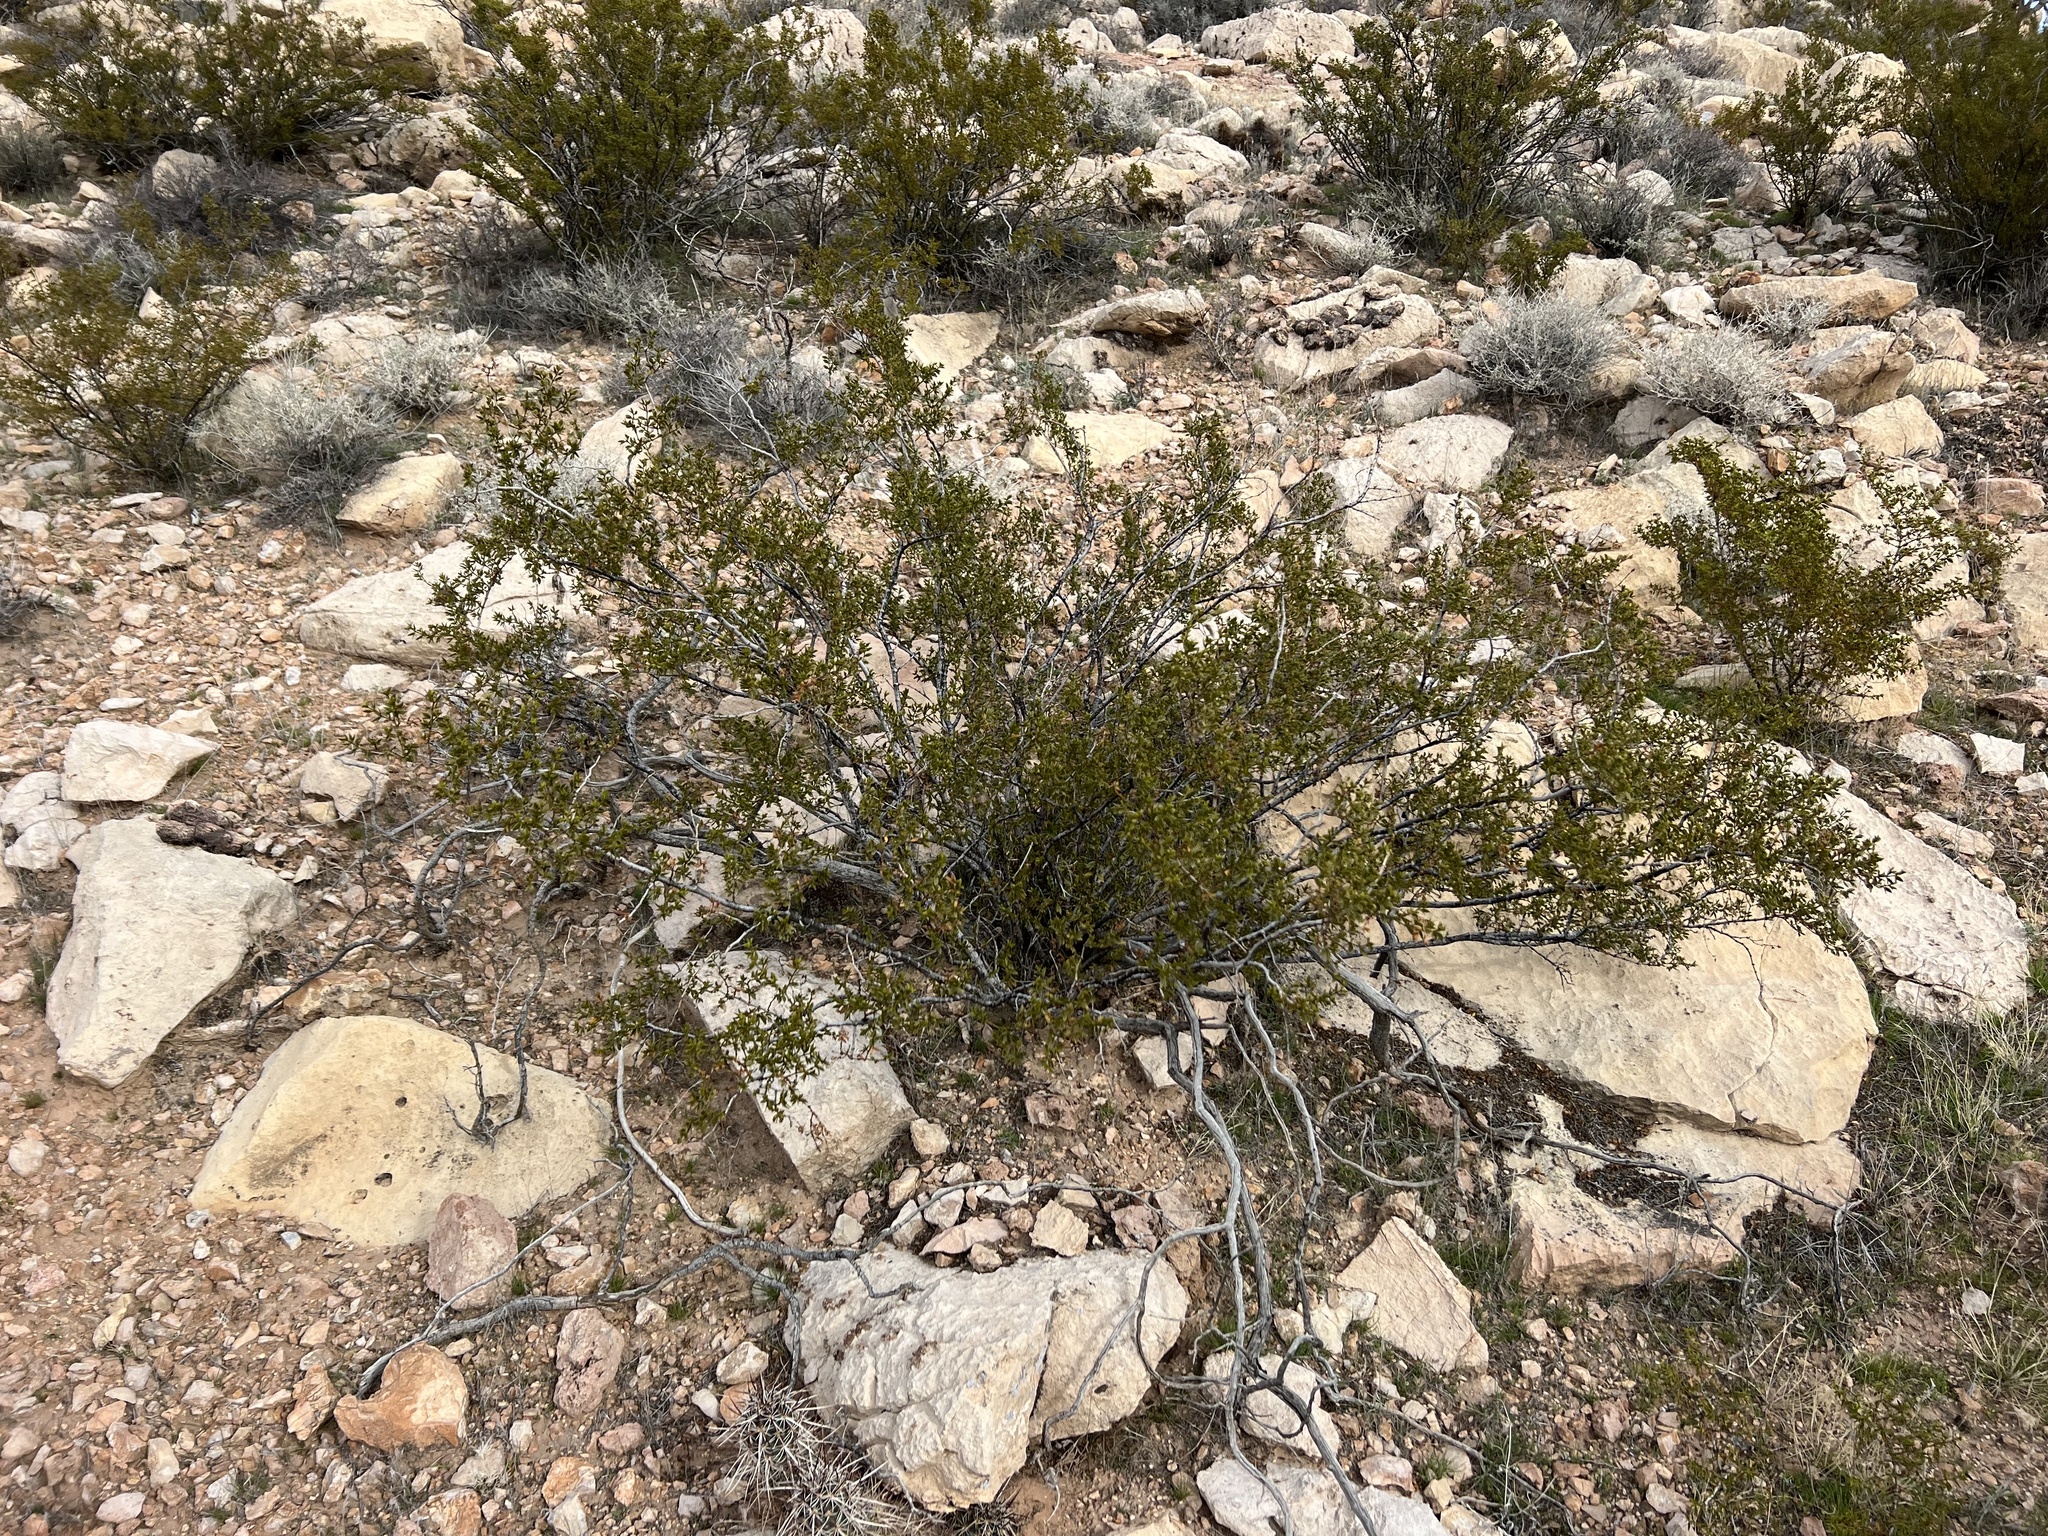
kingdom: Plantae
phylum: Tracheophyta
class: Magnoliopsida
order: Zygophyllales
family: Zygophyllaceae
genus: Larrea
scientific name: Larrea tridentata
